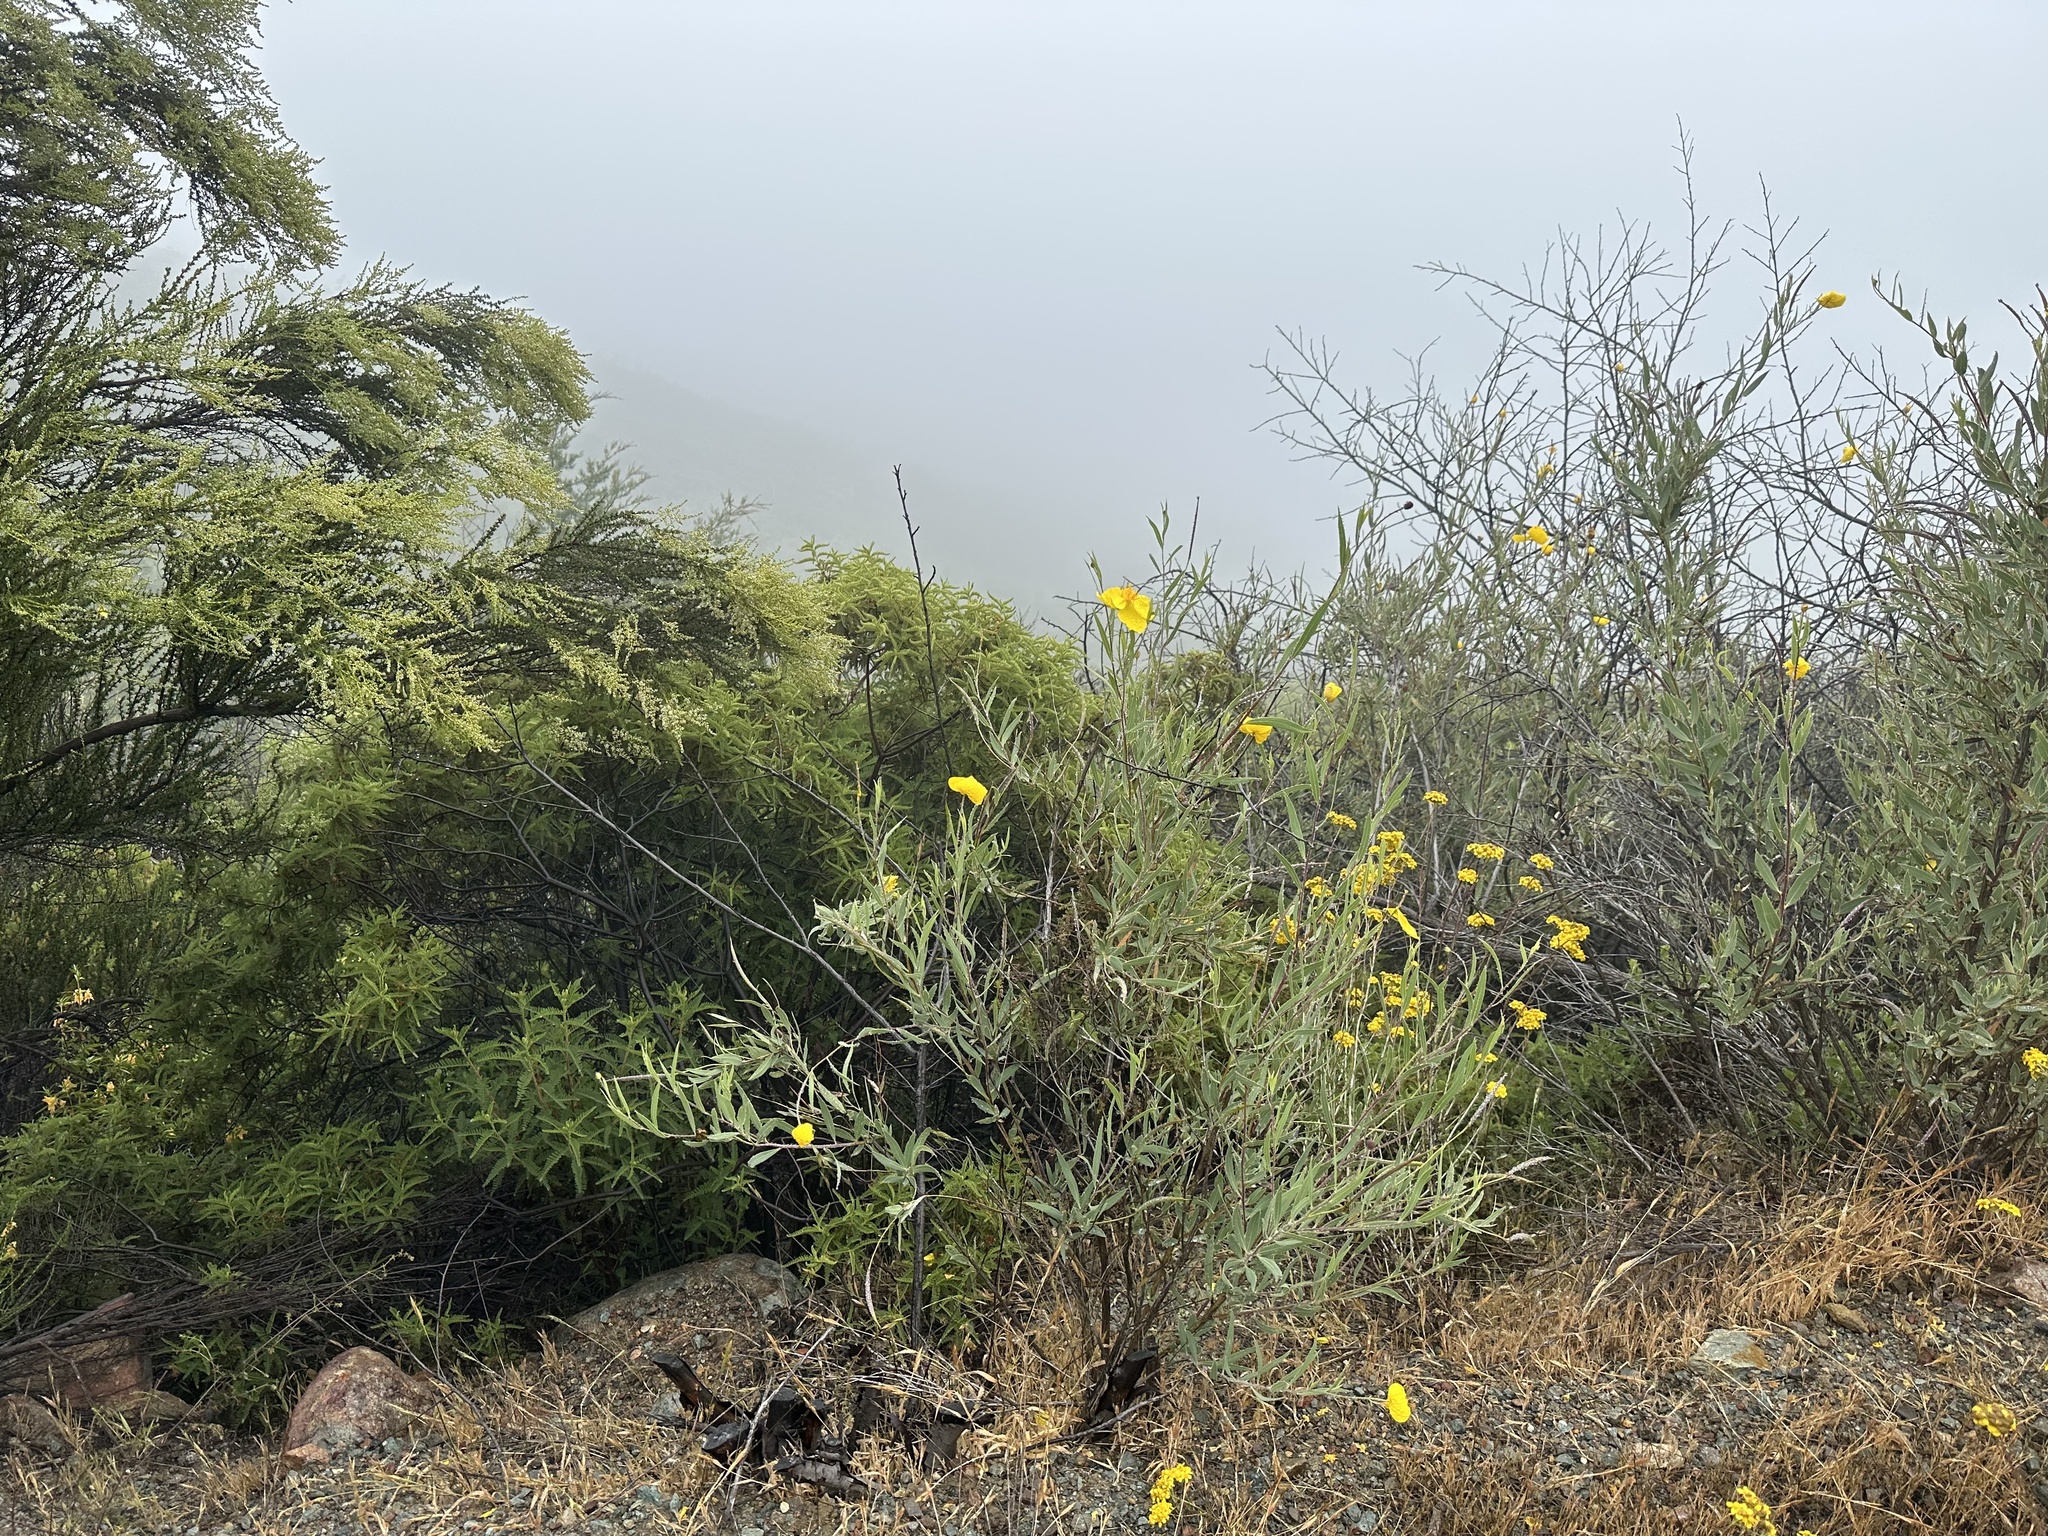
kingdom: Plantae
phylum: Tracheophyta
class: Magnoliopsida
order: Ranunculales
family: Papaveraceae
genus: Dendromecon
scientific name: Dendromecon rigida
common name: Tree poppy
